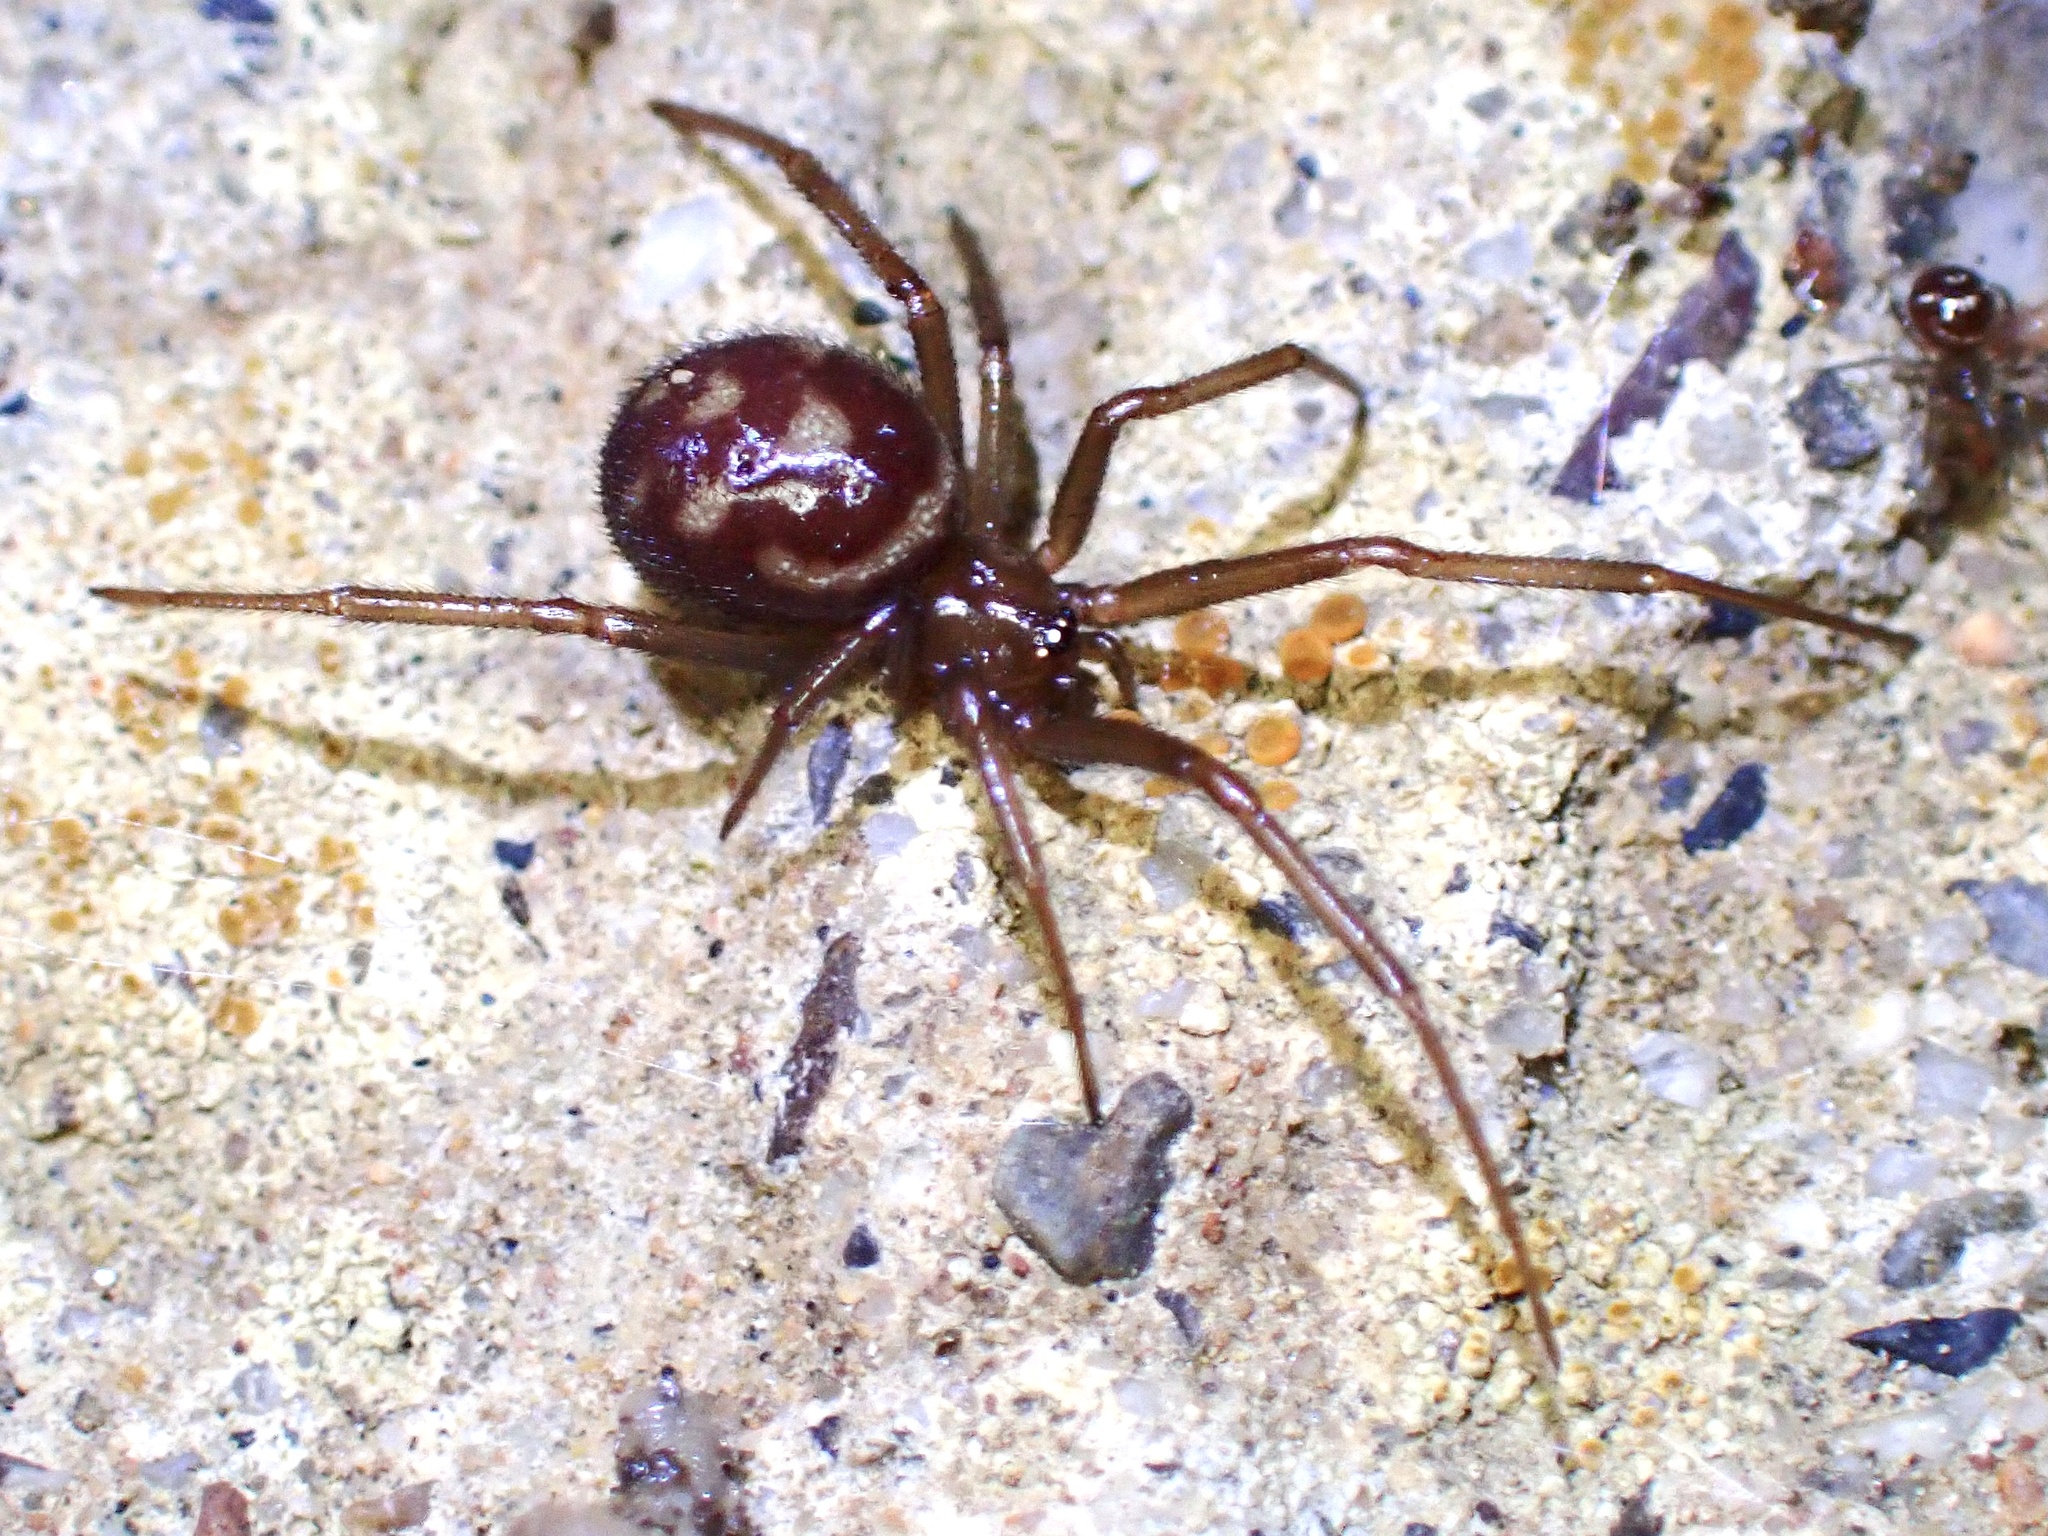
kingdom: Animalia
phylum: Arthropoda
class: Arachnida
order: Araneae
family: Theridiidae
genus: Steatoda
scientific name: Steatoda grossa
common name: False black widow
